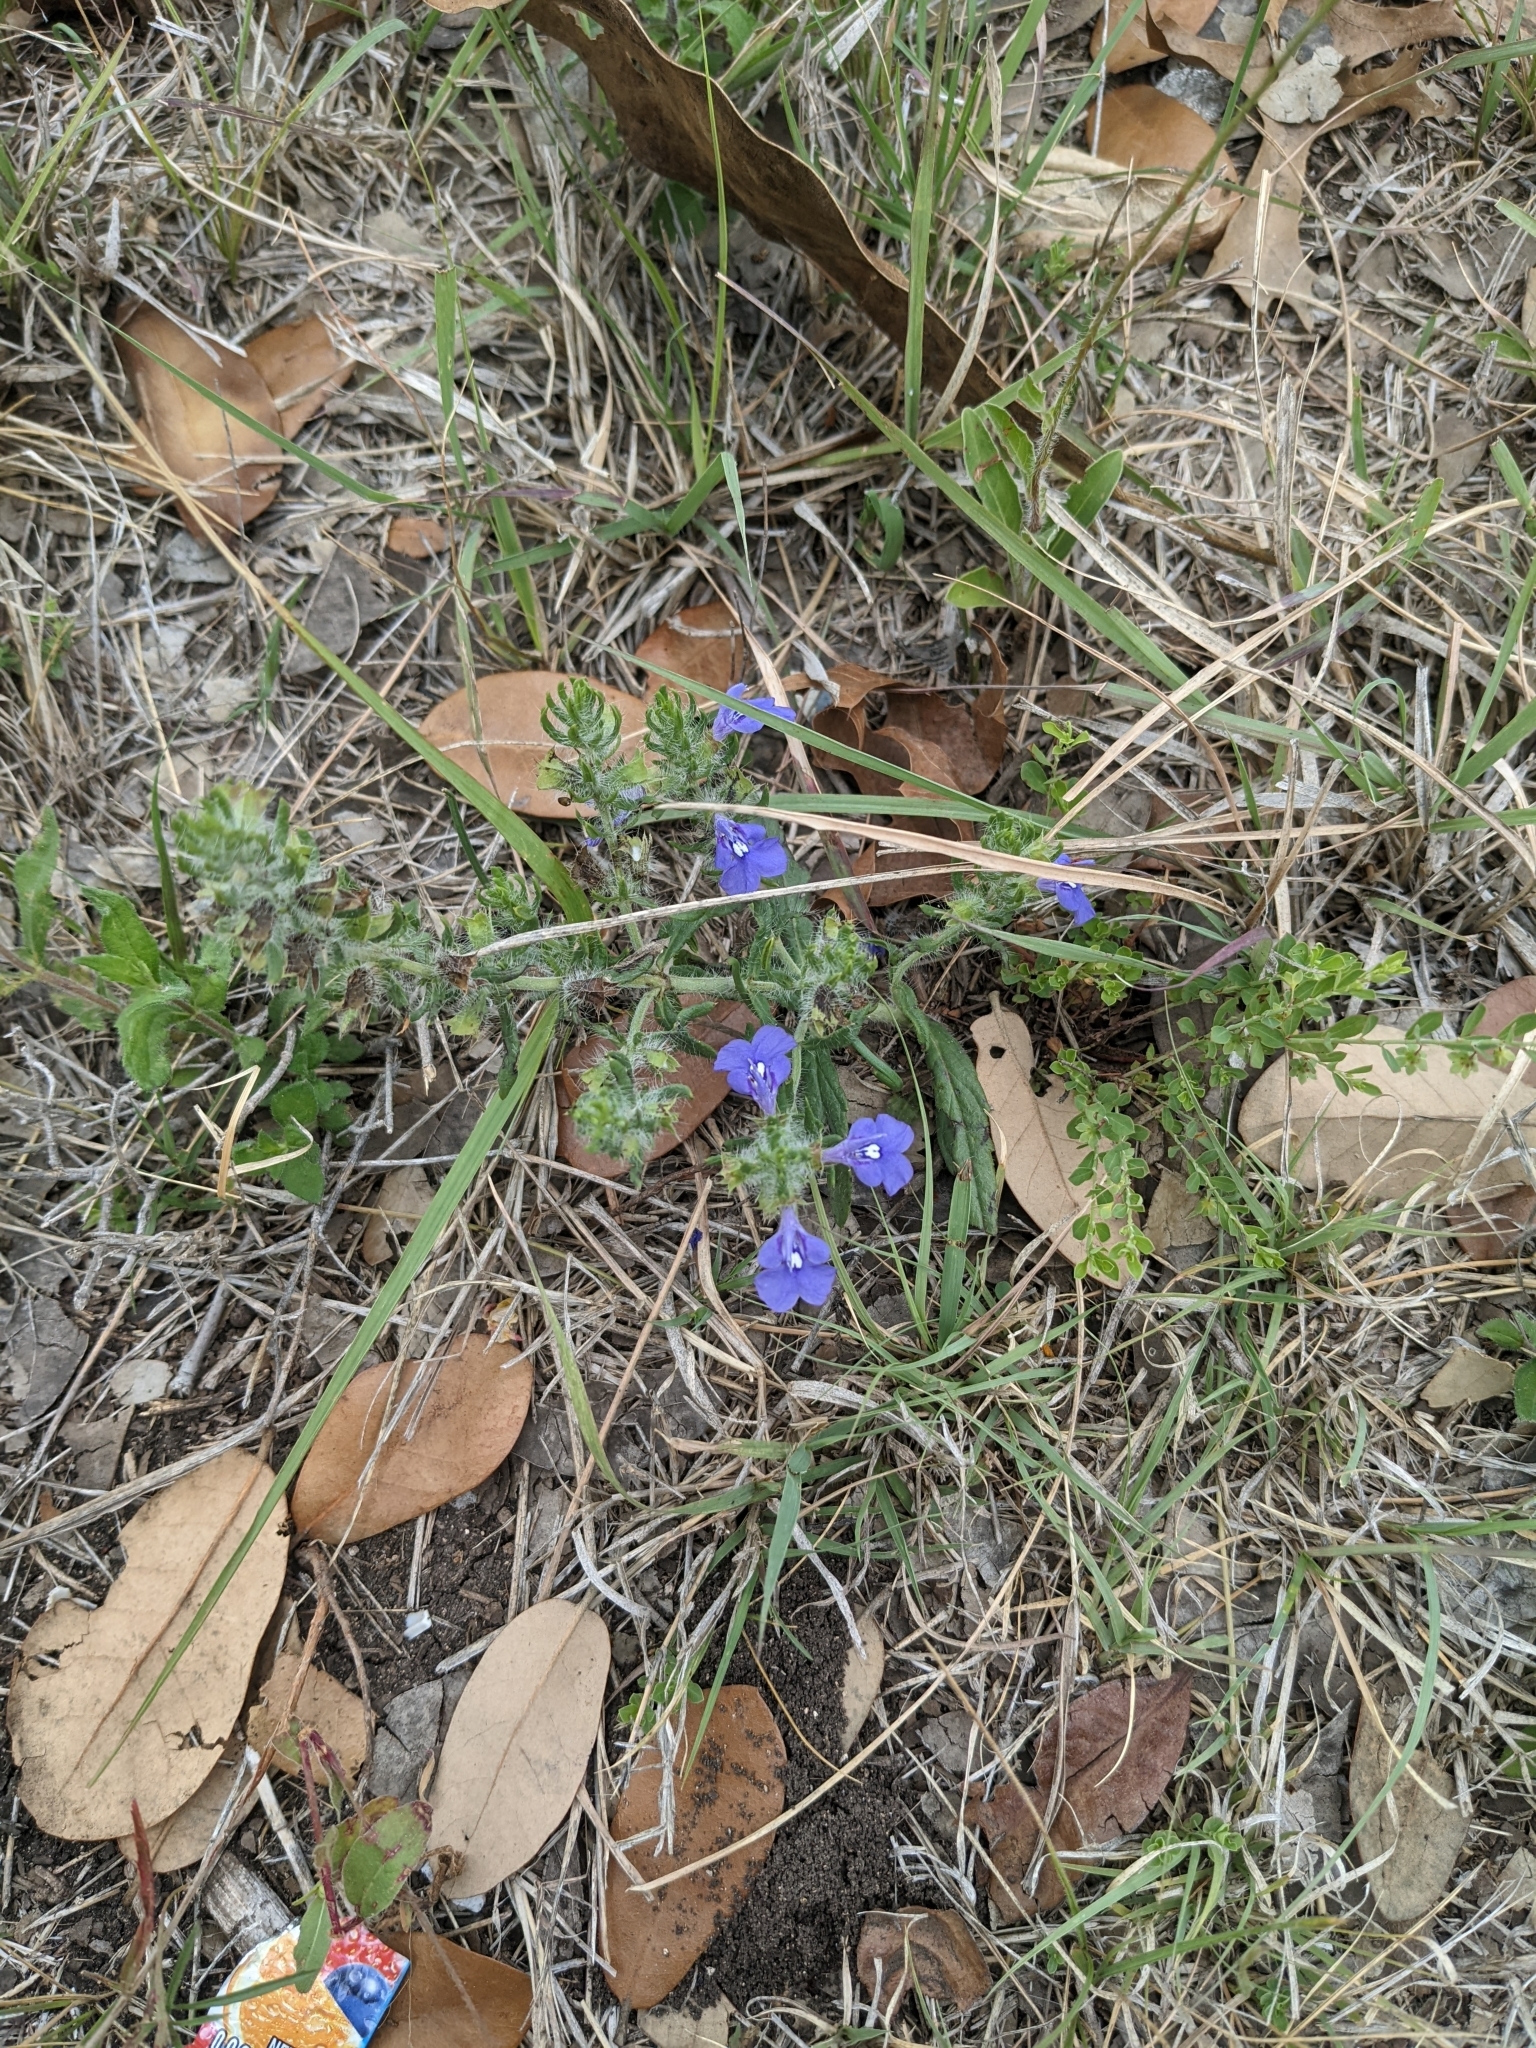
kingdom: Plantae
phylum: Tracheophyta
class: Magnoliopsida
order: Lamiales
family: Lamiaceae
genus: Salvia
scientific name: Salvia texana
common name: Texas sage
